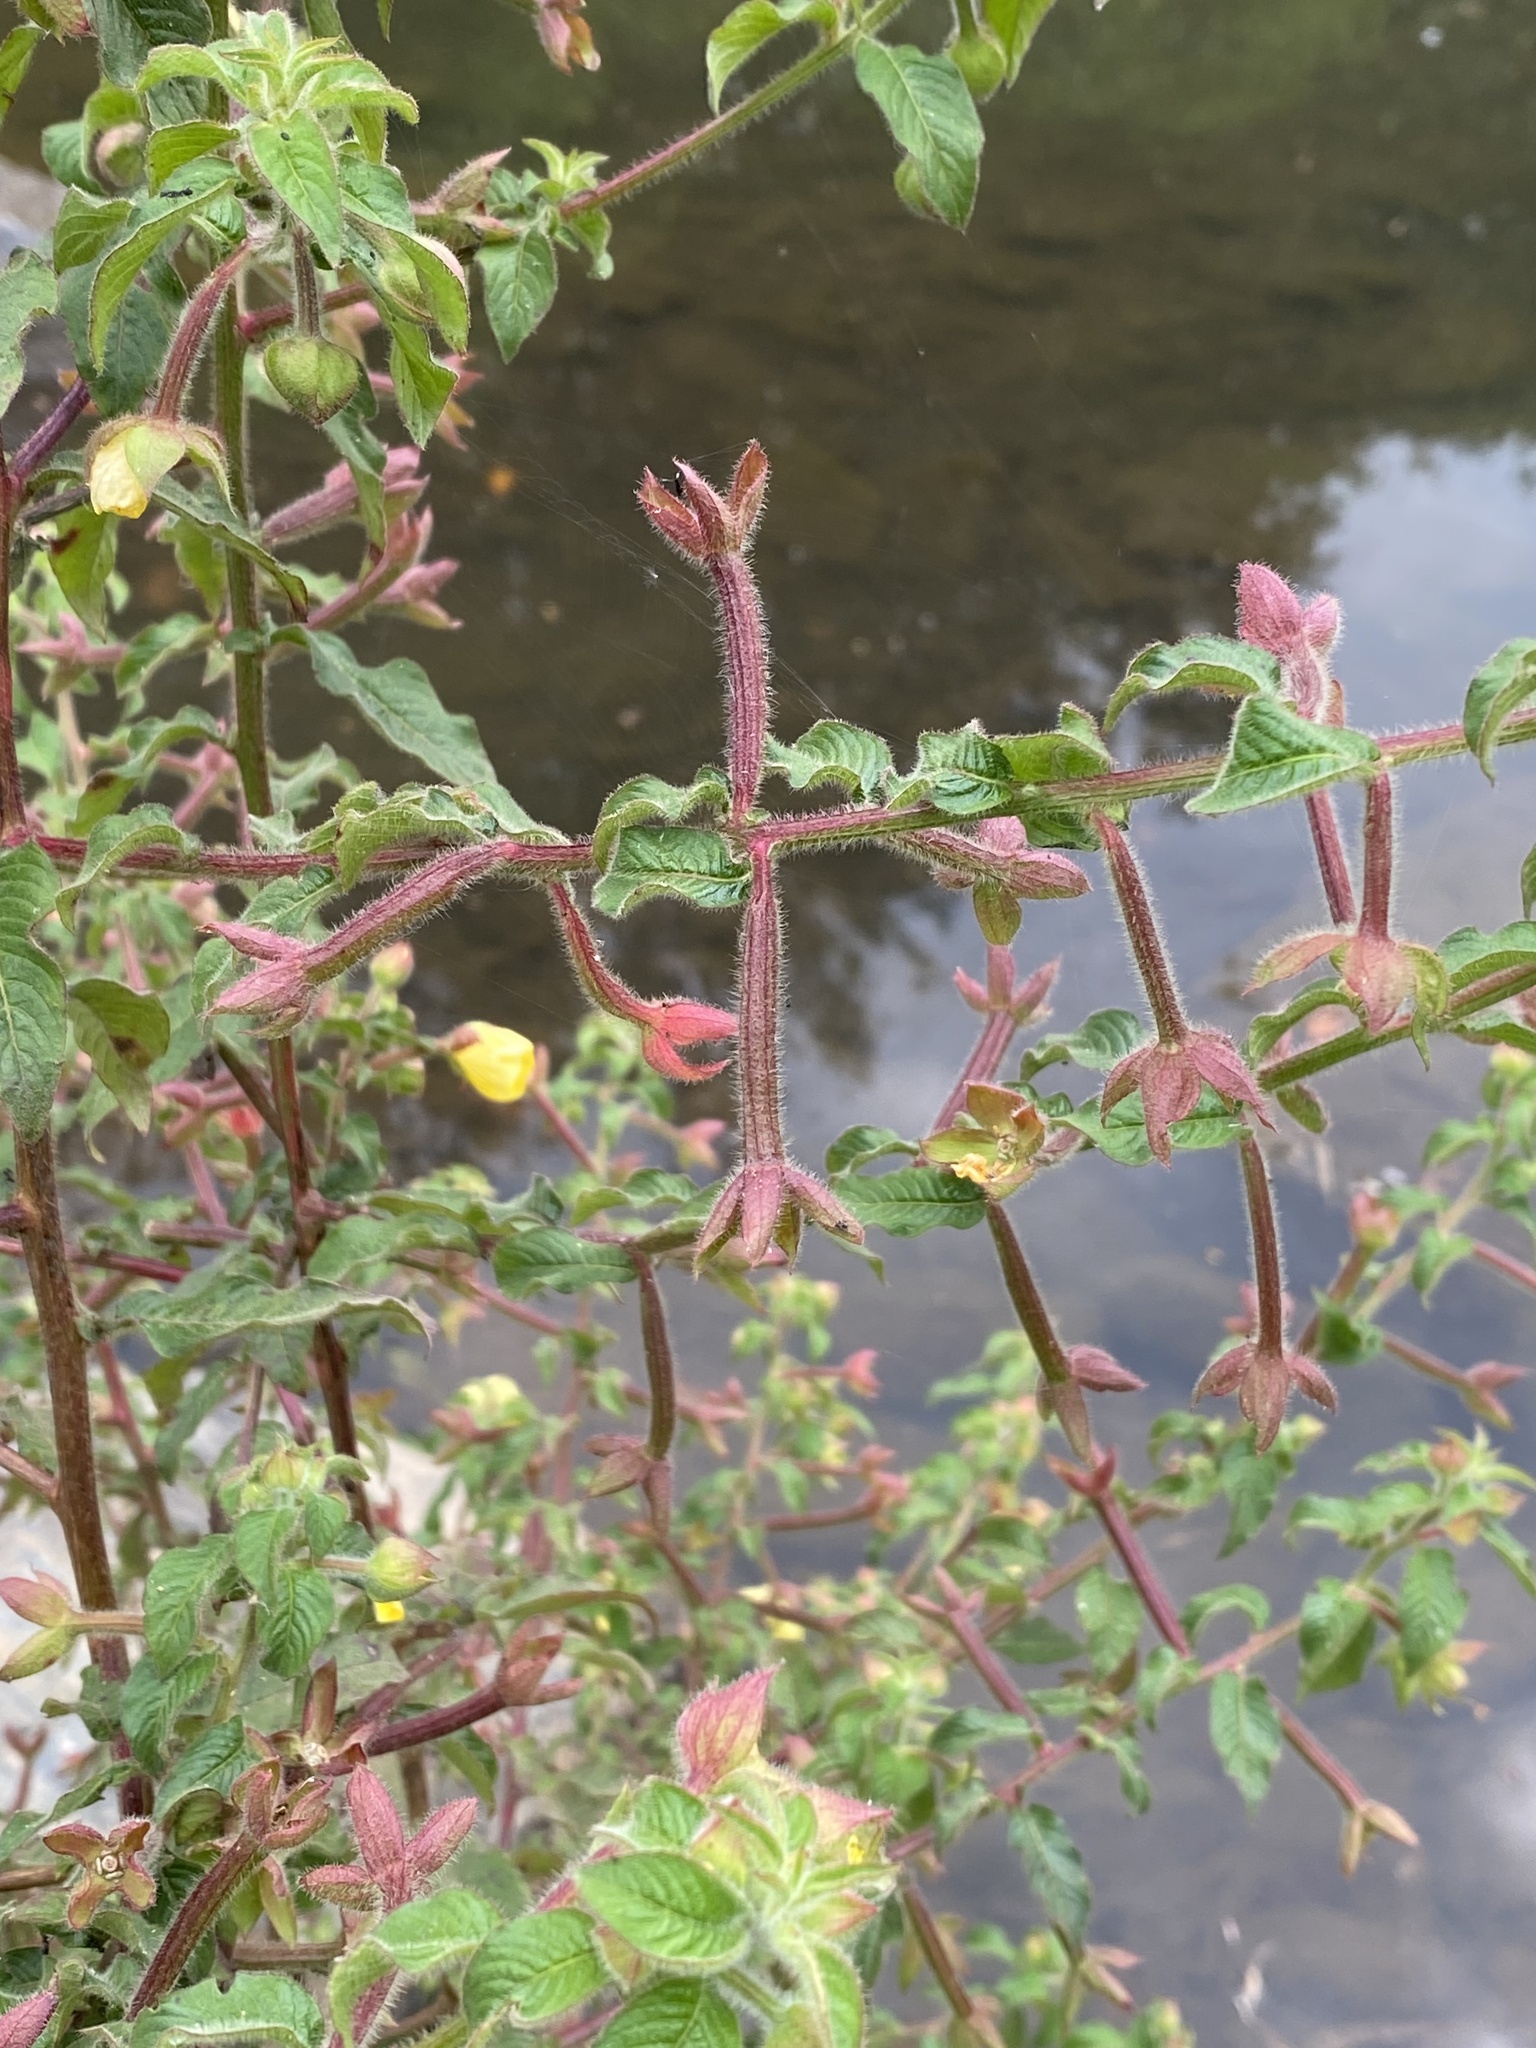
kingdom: Plantae
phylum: Tracheophyta
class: Magnoliopsida
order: Myrtales
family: Onagraceae
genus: Ludwigia
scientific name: Ludwigia octovalvis
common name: Water-primrose
